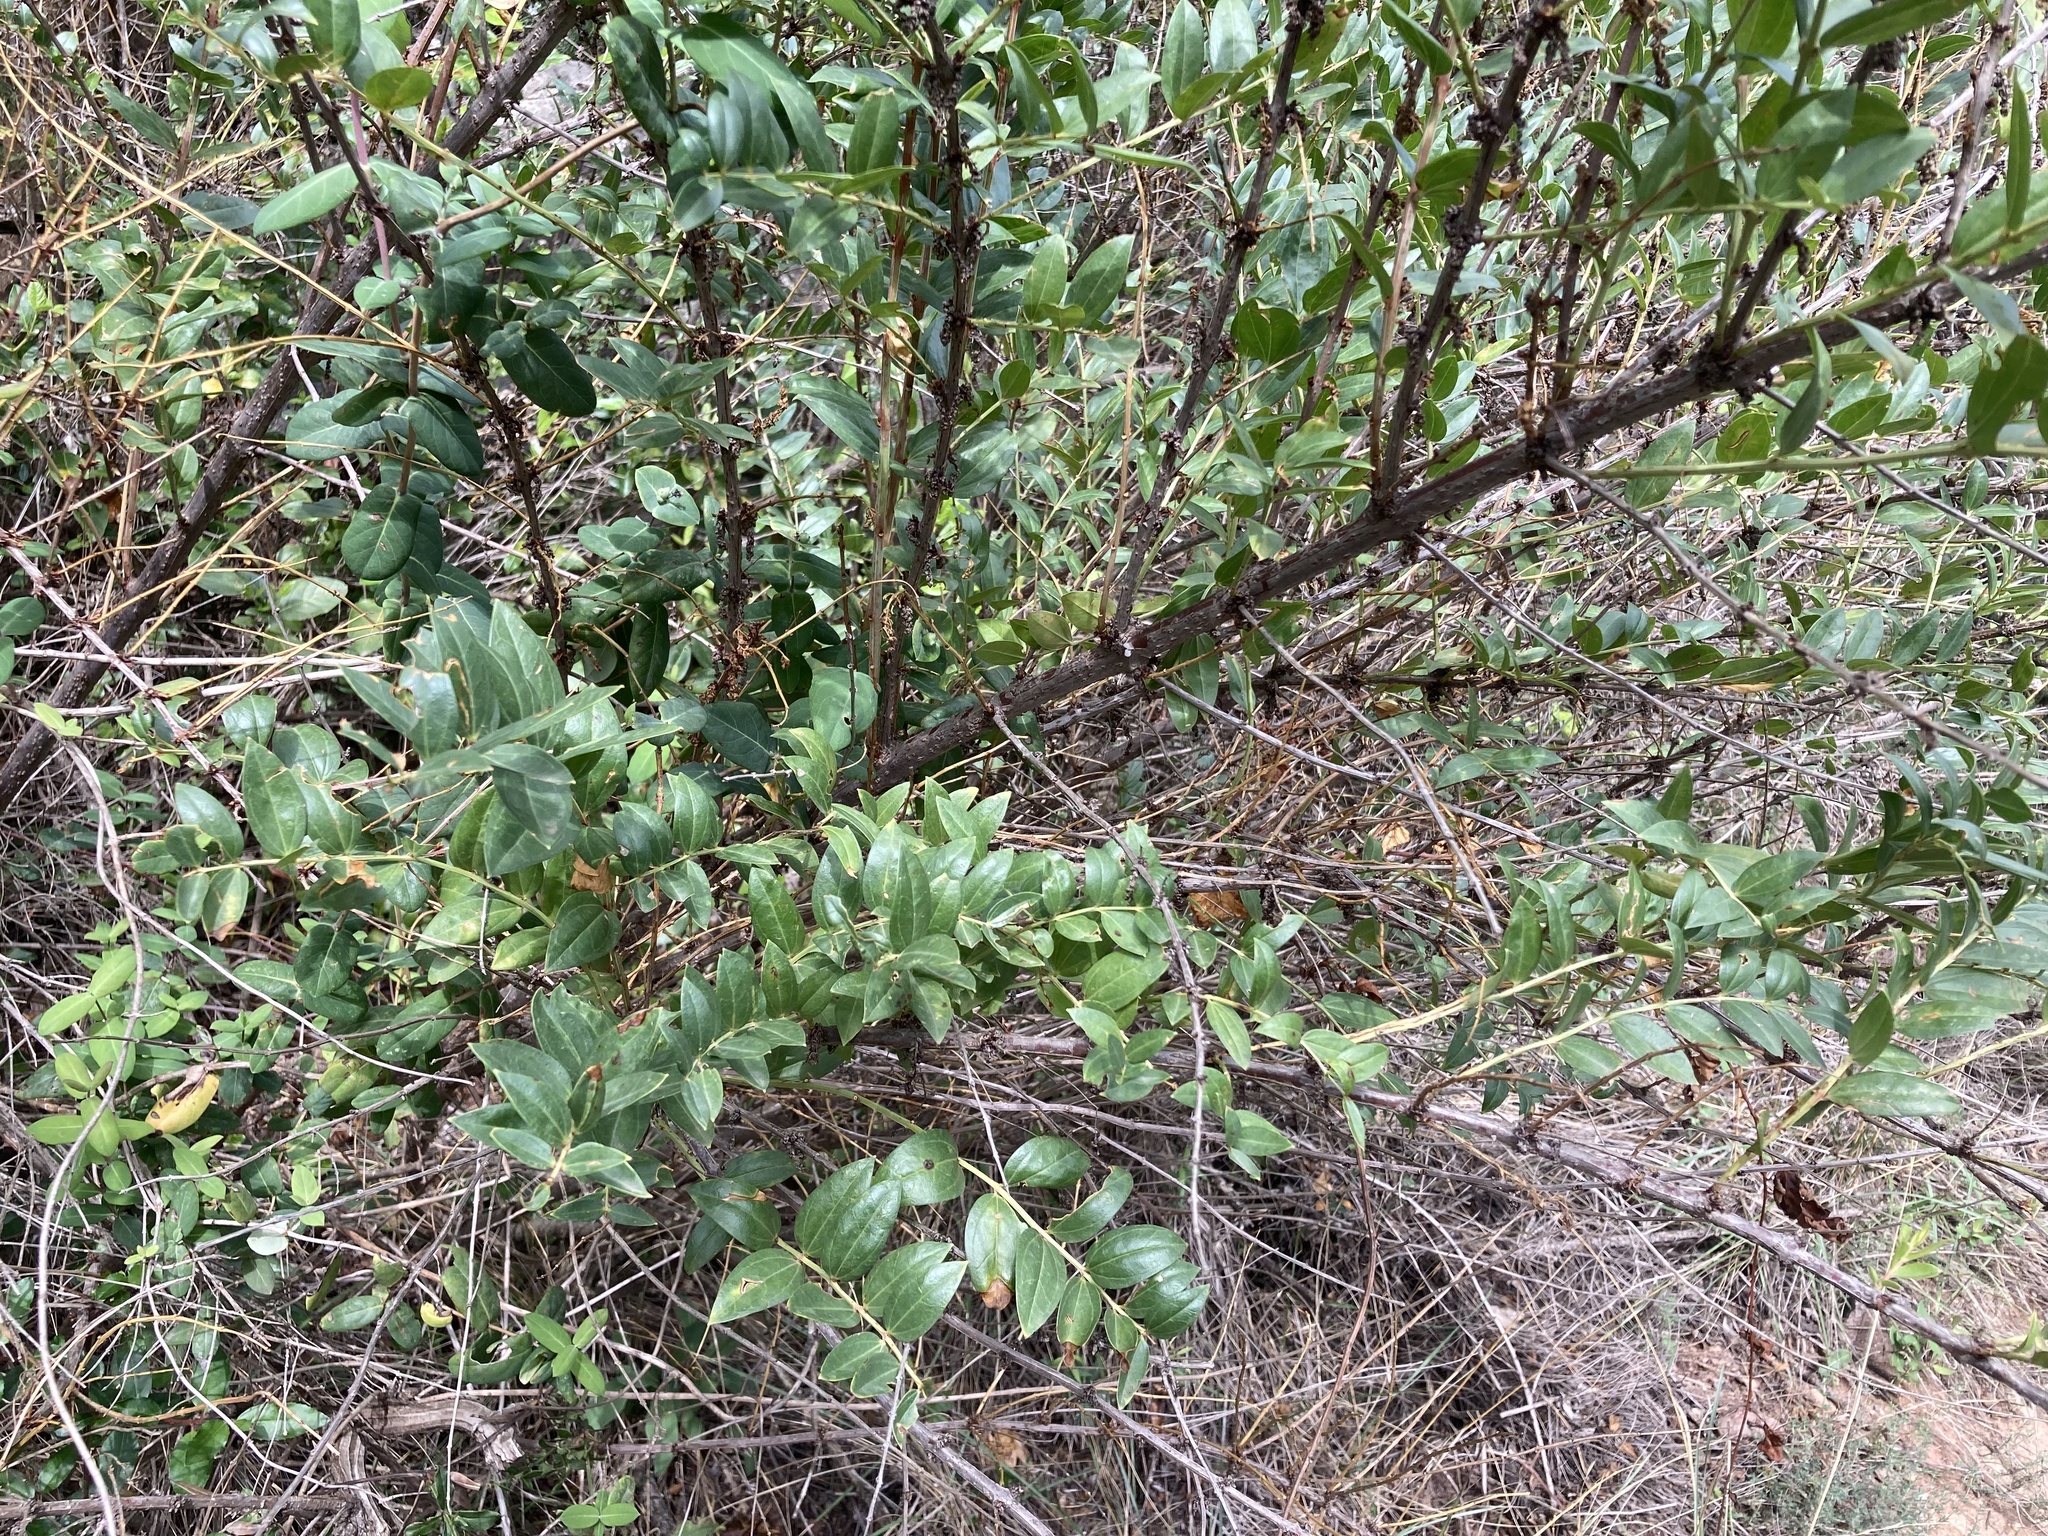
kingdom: Plantae
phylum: Tracheophyta
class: Magnoliopsida
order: Cucurbitales
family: Coriariaceae
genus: Coriaria
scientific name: Coriaria myrtifolia
